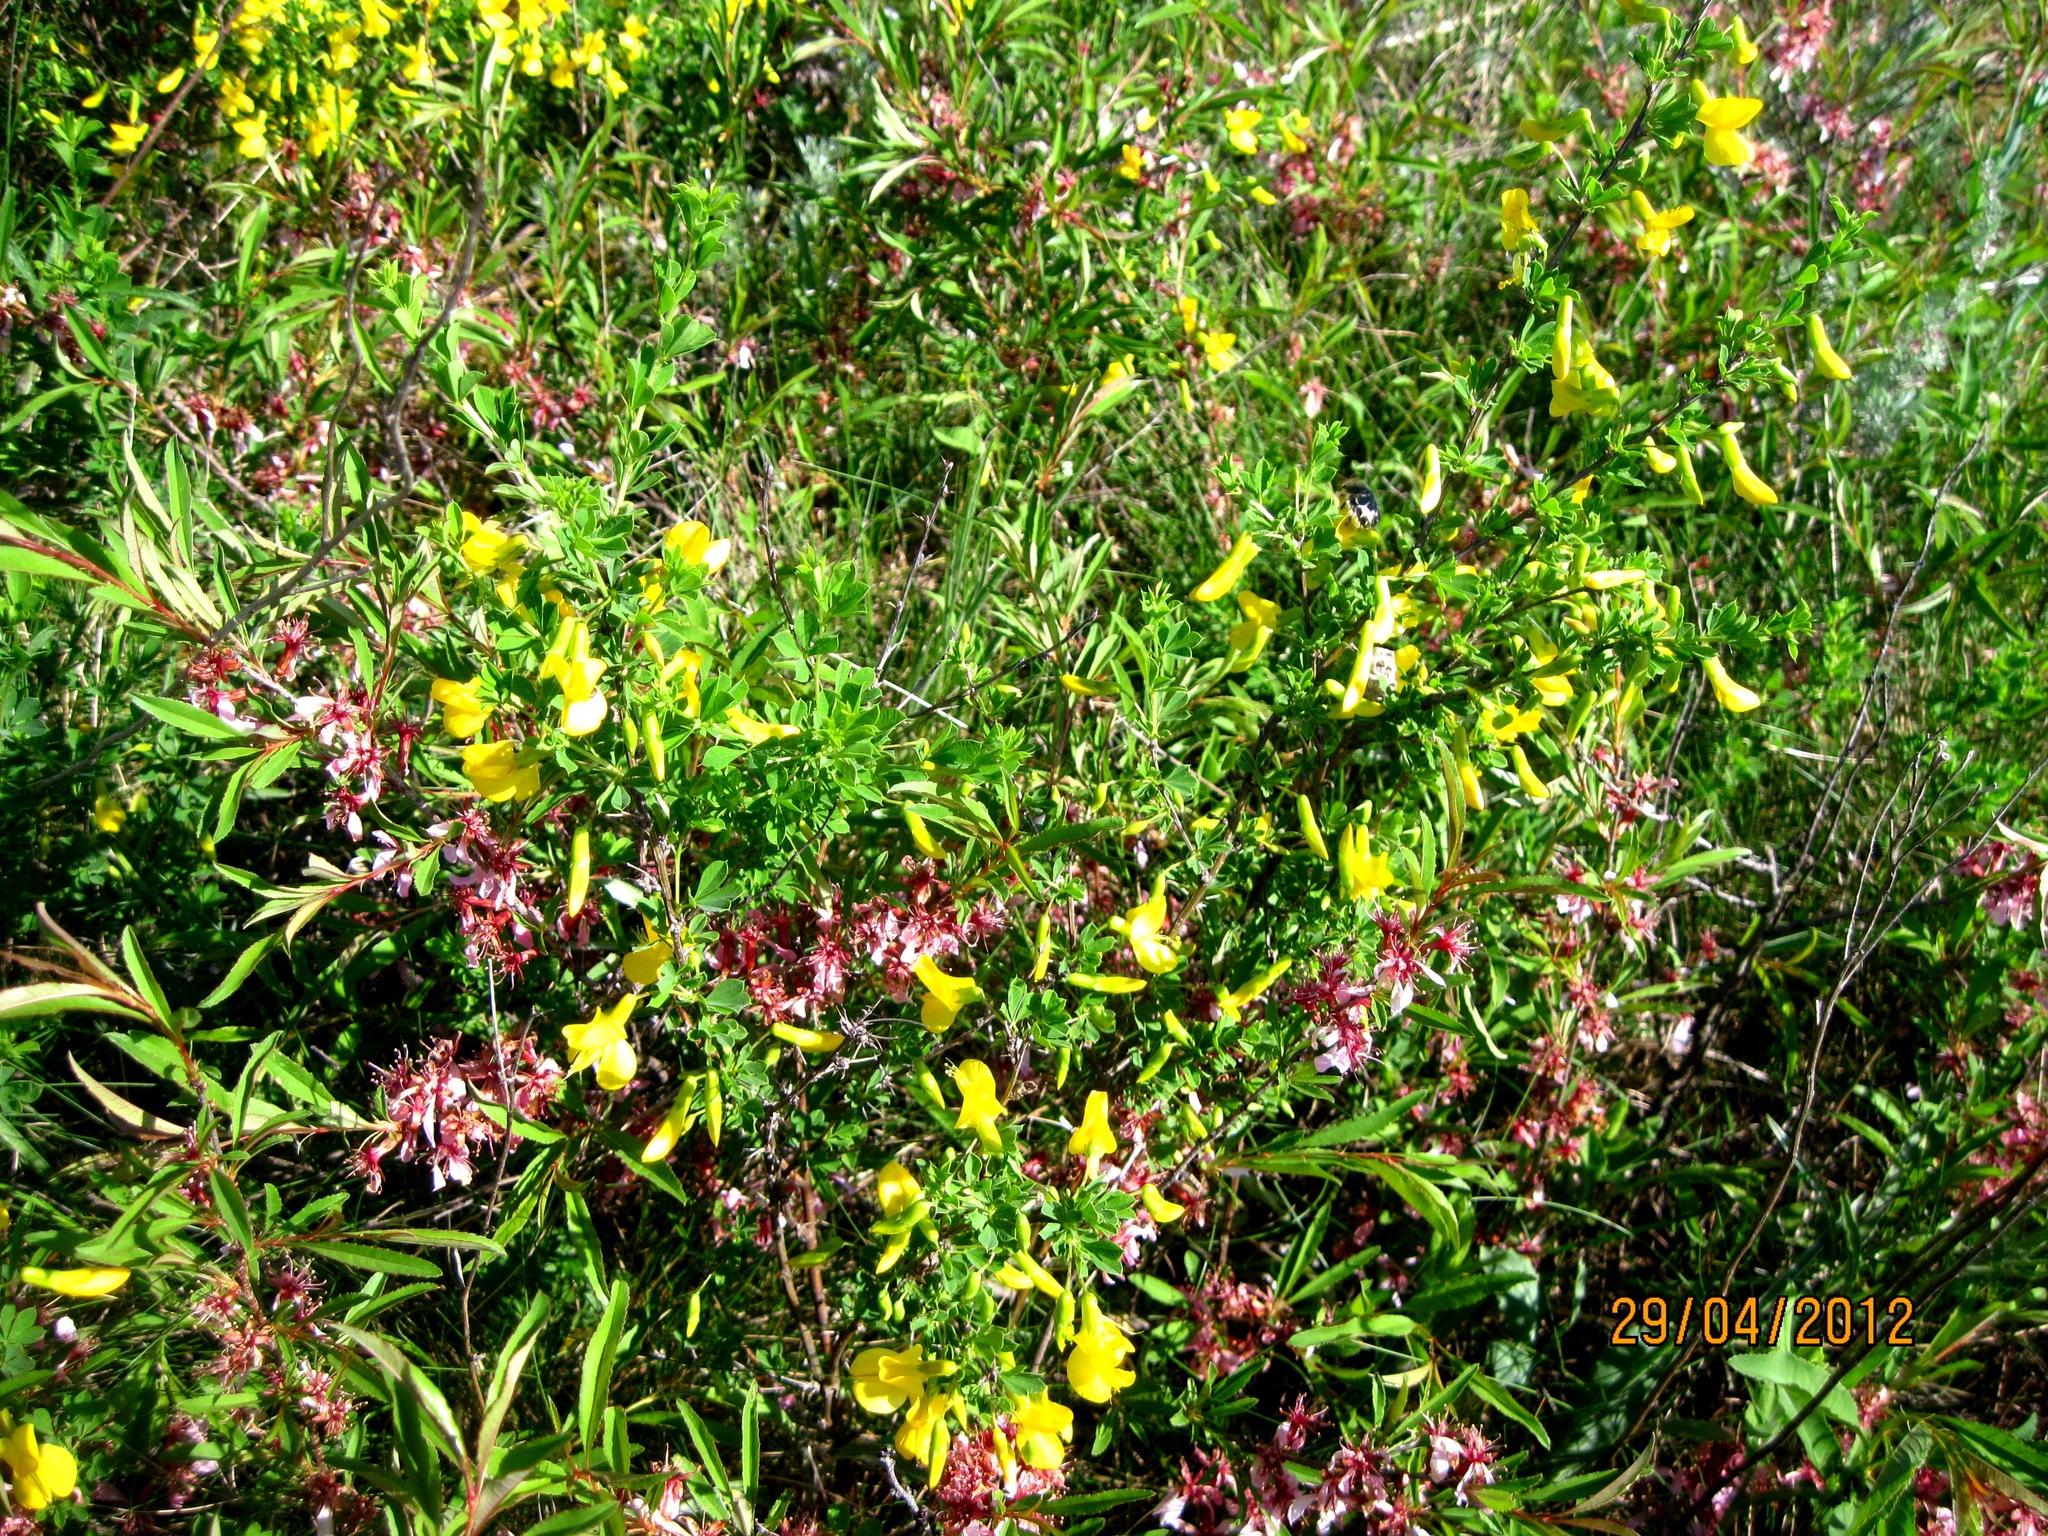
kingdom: Plantae
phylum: Tracheophyta
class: Magnoliopsida
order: Fabales
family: Fabaceae
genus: Caragana
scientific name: Caragana frutex
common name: Russian peashrub
